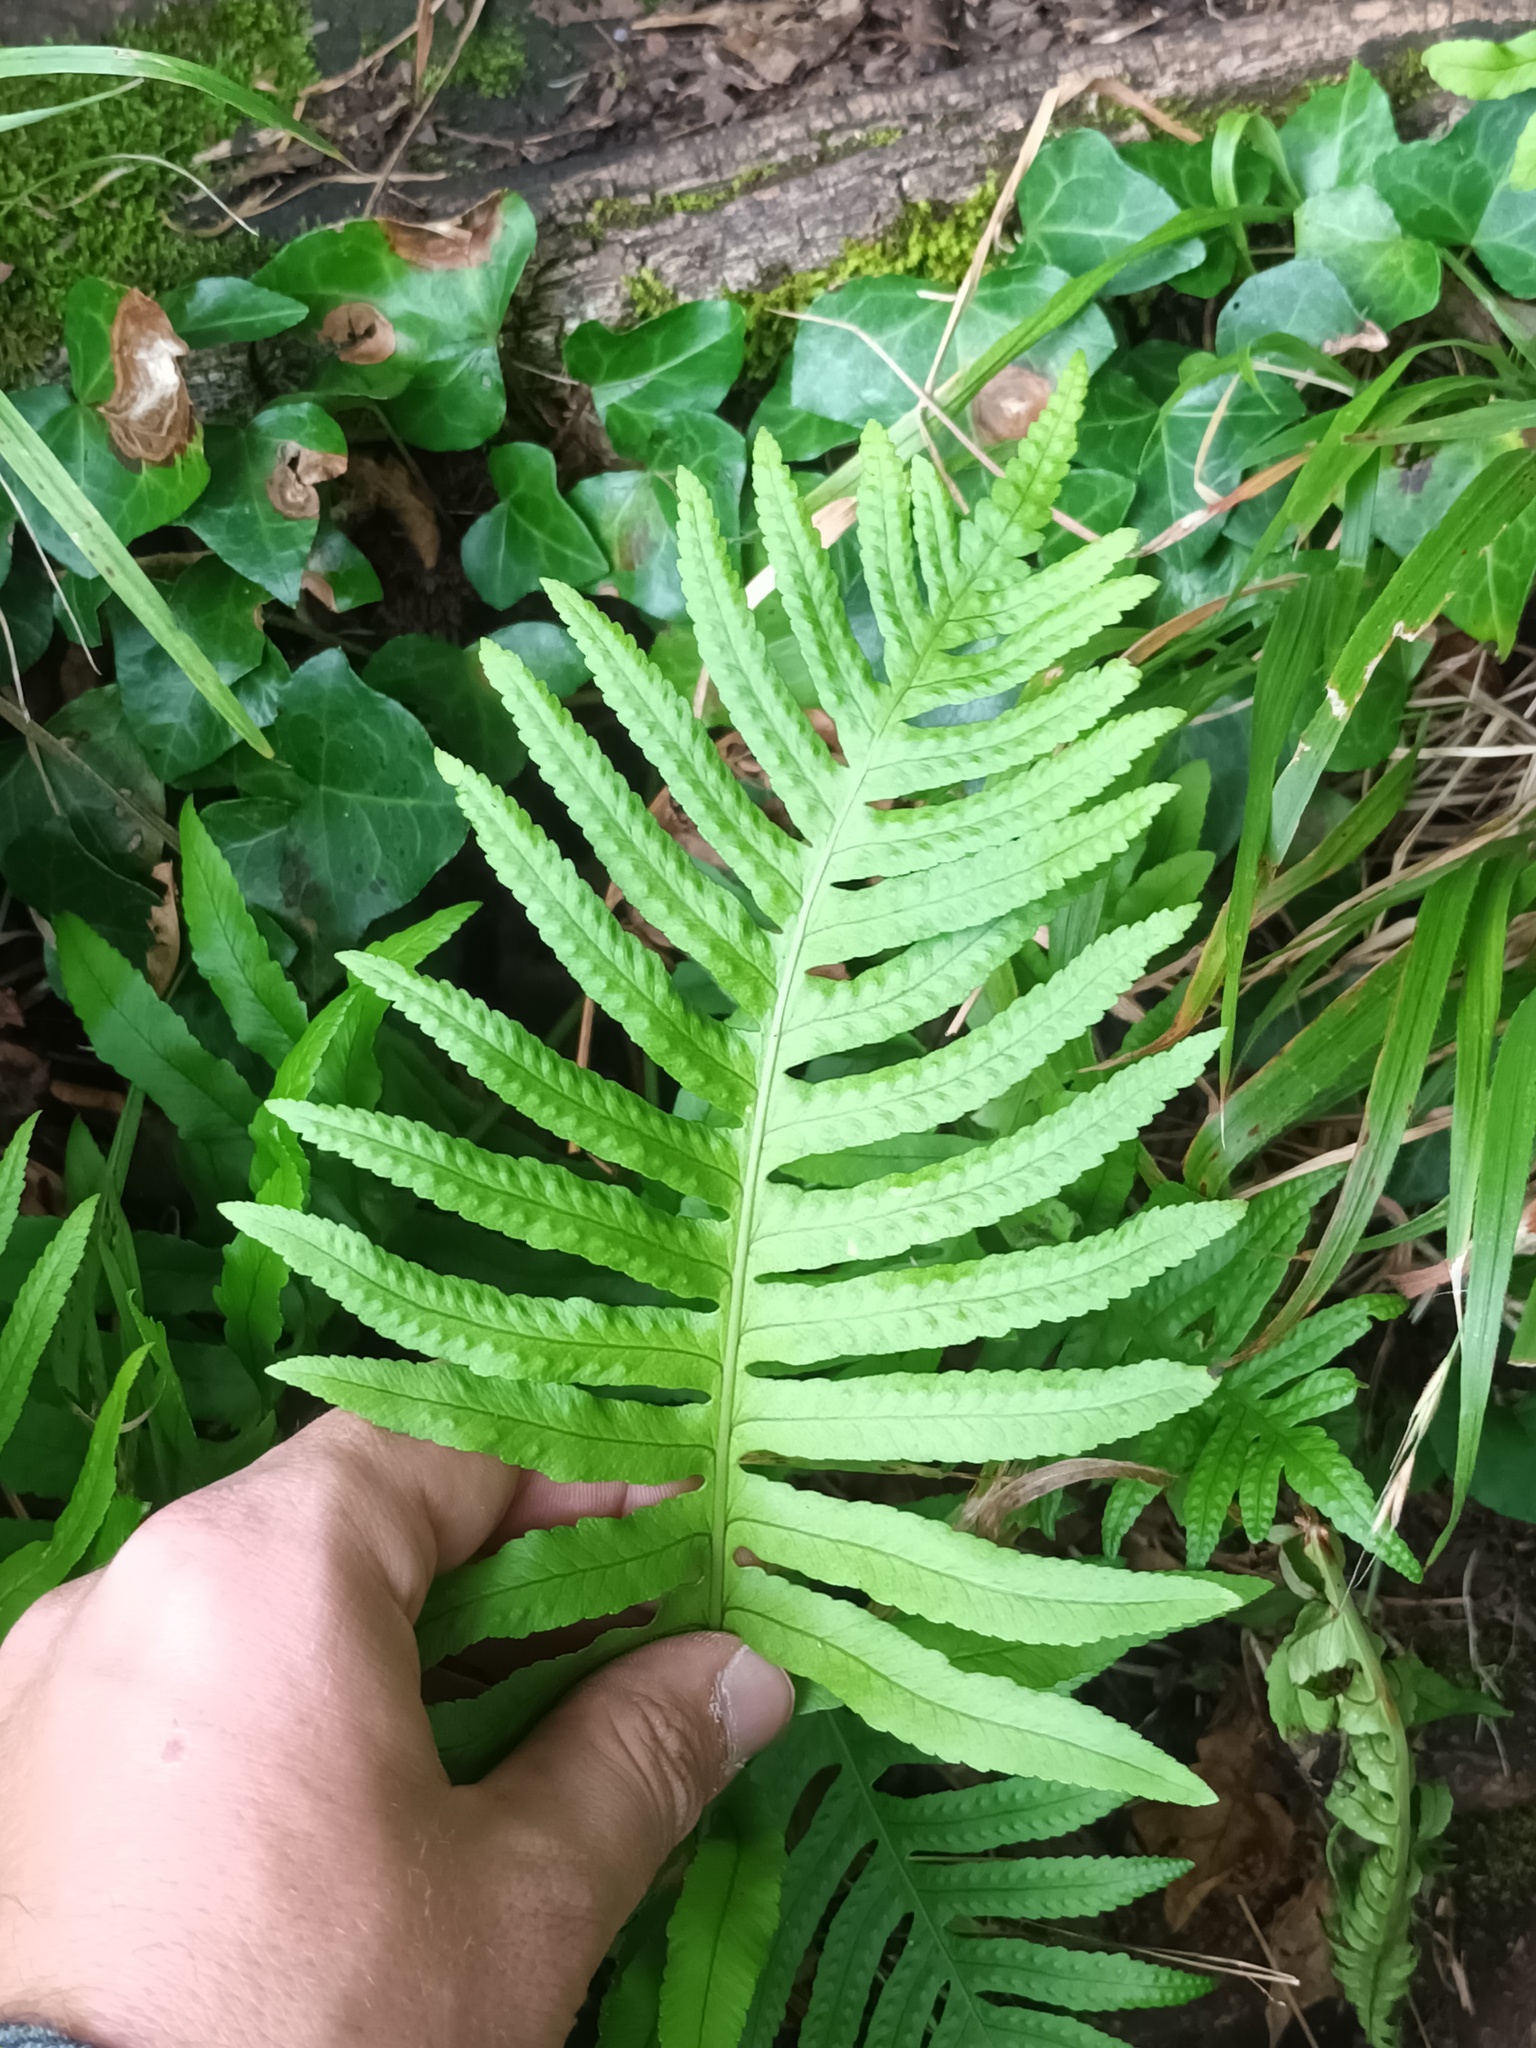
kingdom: Plantae
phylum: Tracheophyta
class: Polypodiopsida
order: Polypodiales
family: Polypodiaceae
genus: Polypodium
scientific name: Polypodium cambricum
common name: Southern polypody
